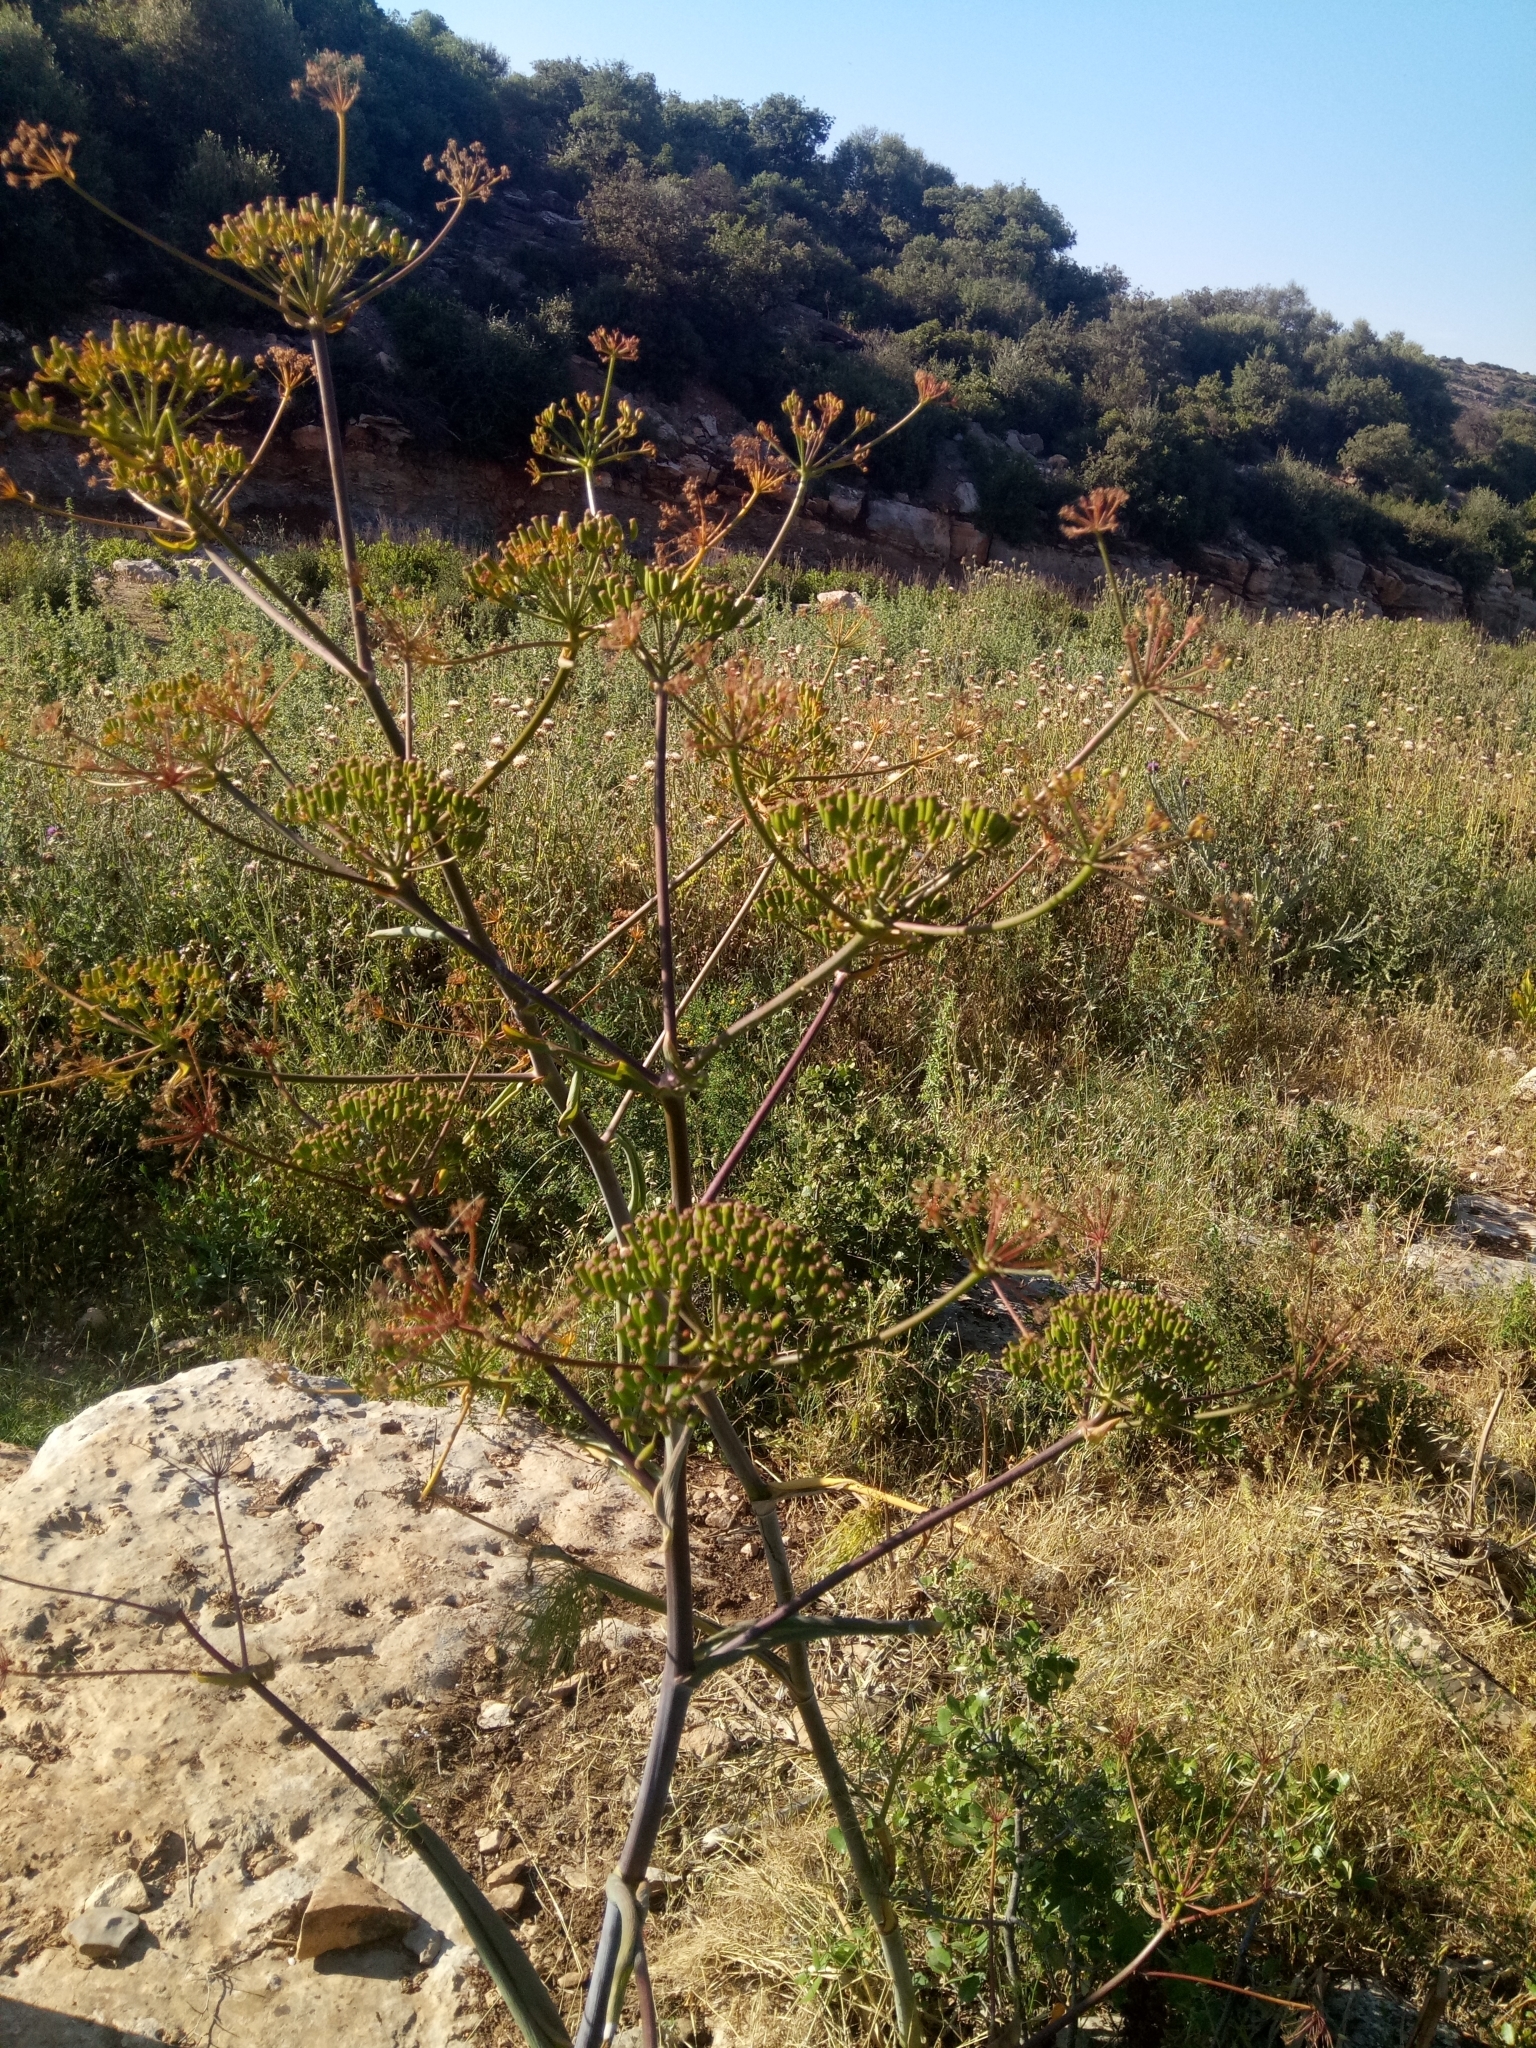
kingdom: Plantae
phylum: Tracheophyta
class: Magnoliopsida
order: Apiales
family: Apiaceae
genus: Ferula
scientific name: Ferula communis
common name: Giant fennel
